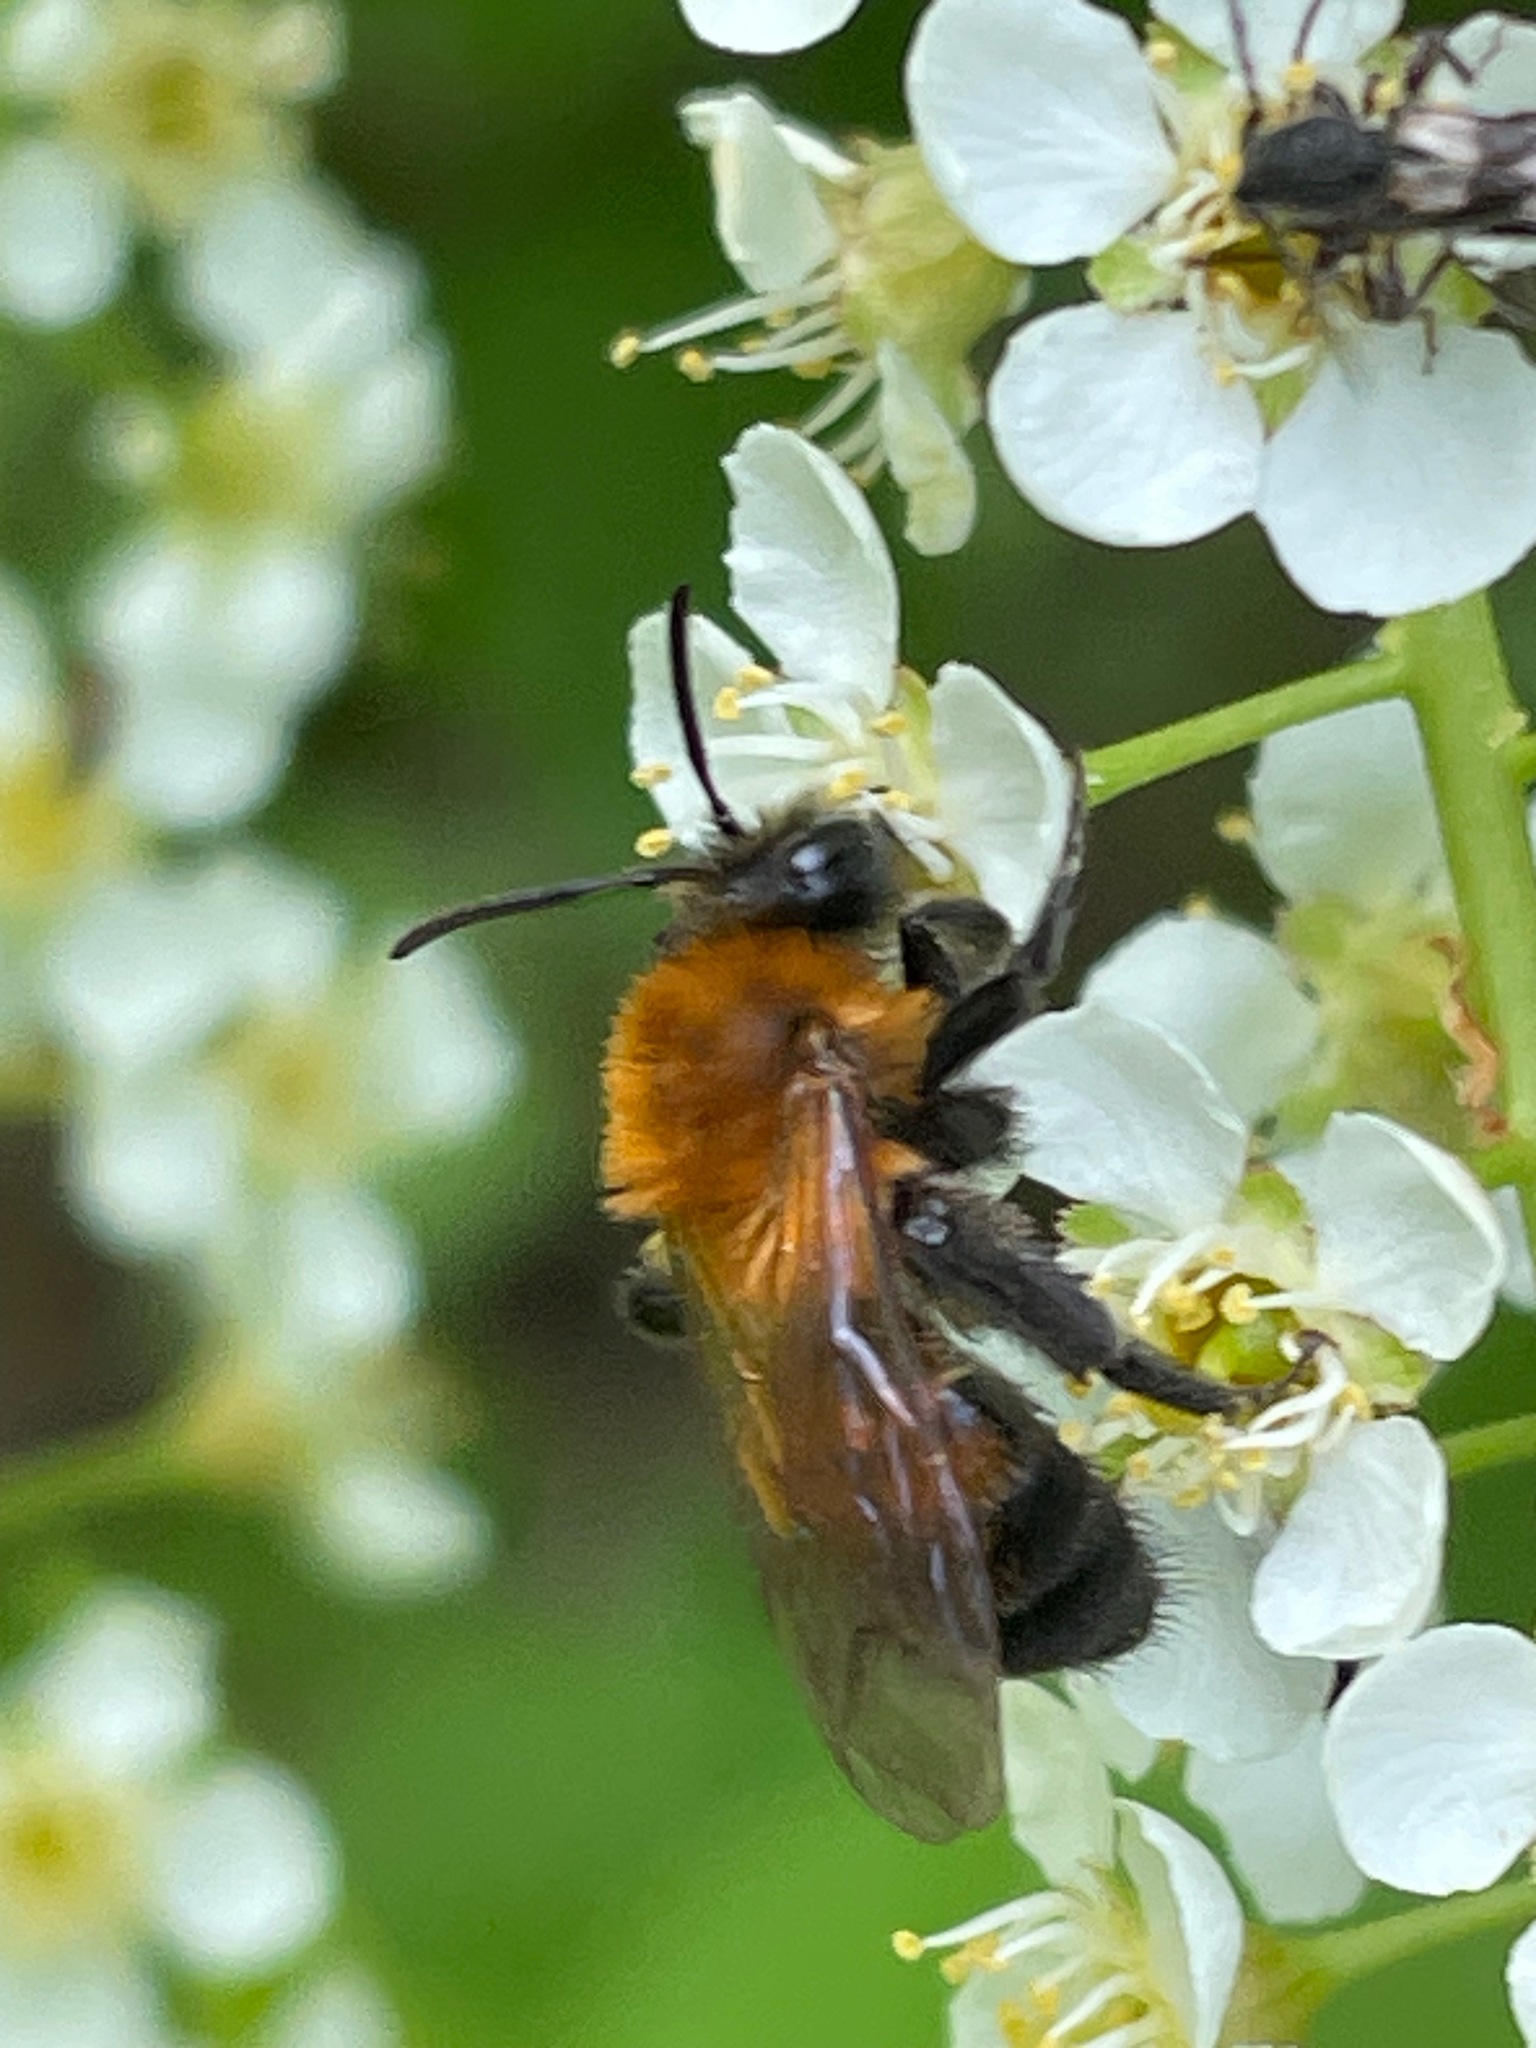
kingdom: Animalia
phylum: Arthropoda
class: Insecta
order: Hymenoptera
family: Andrenidae
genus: Andrena
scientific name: Andrena milwaukeensis
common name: Milwaukee mining bee
